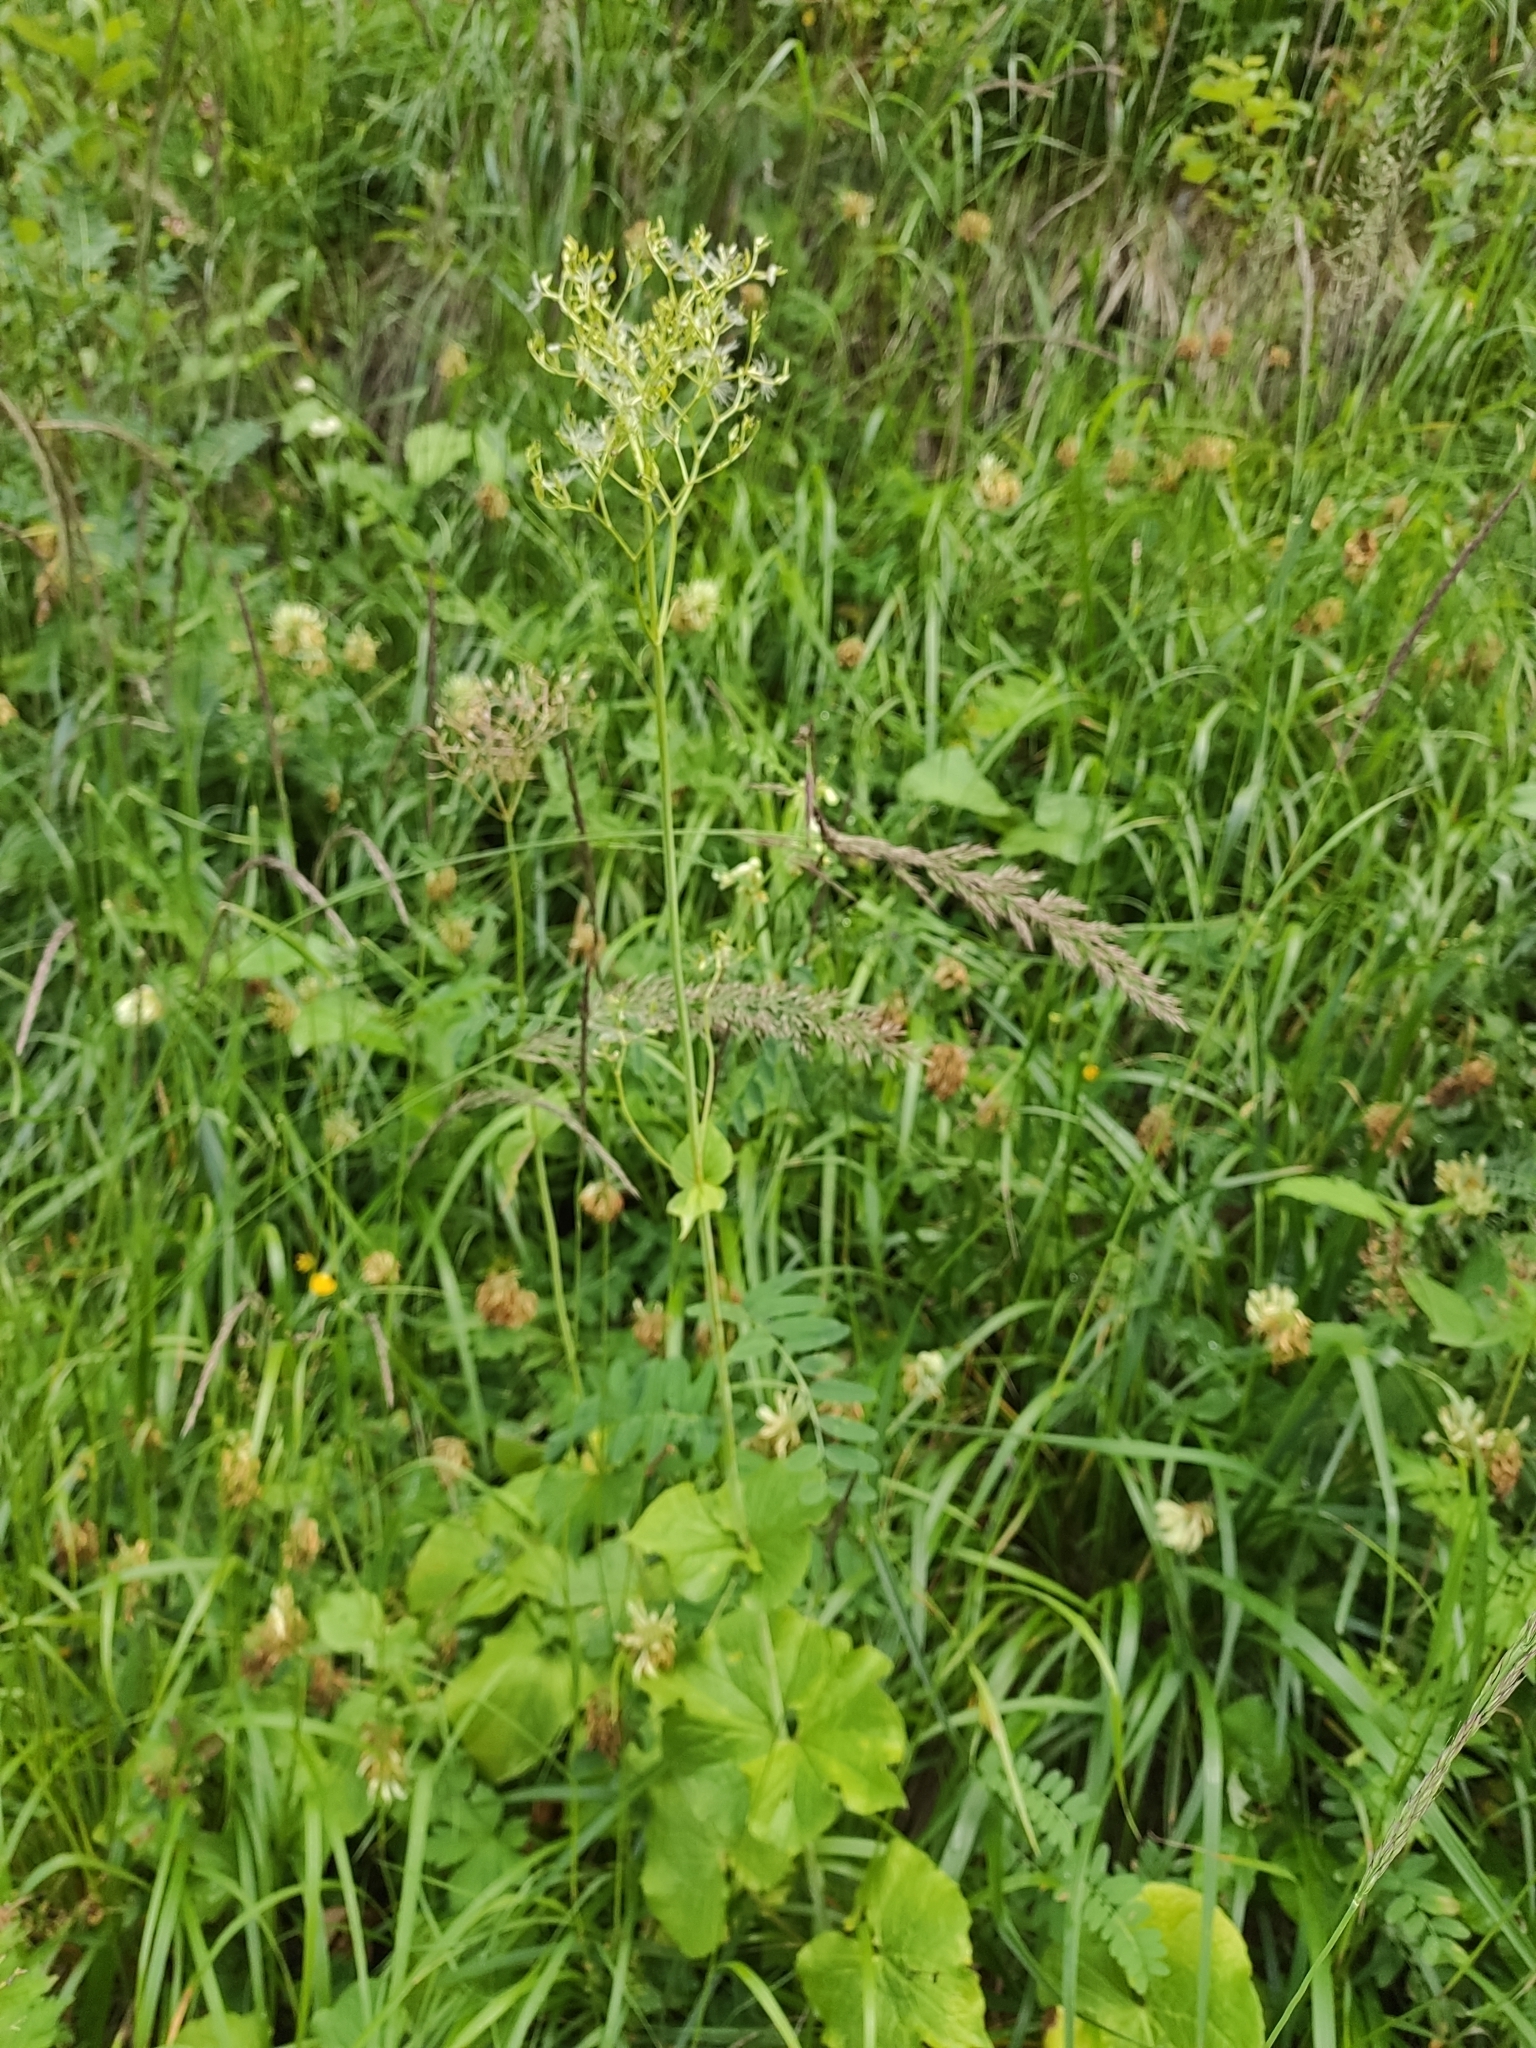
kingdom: Plantae
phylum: Tracheophyta
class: Magnoliopsida
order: Dipsacales
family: Caprifoliaceae
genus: Valeriana
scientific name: Valeriana alliariifolia
